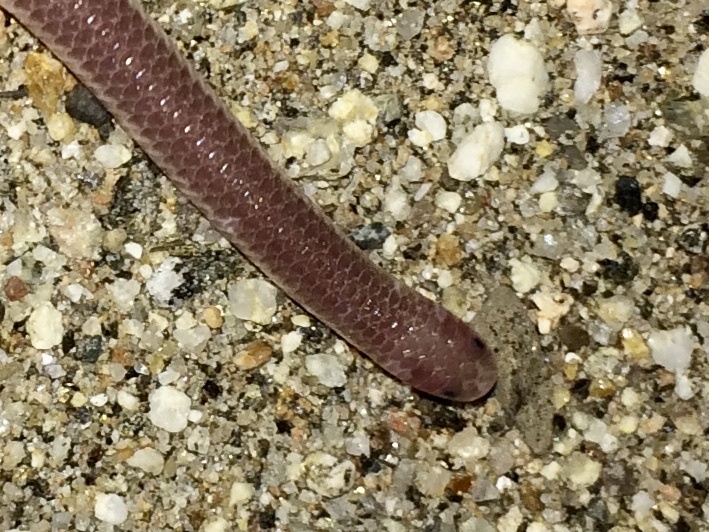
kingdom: Animalia
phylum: Chordata
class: Squamata
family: Leptotyphlopidae
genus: Rena
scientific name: Rena humilis
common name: Western threadsnake
